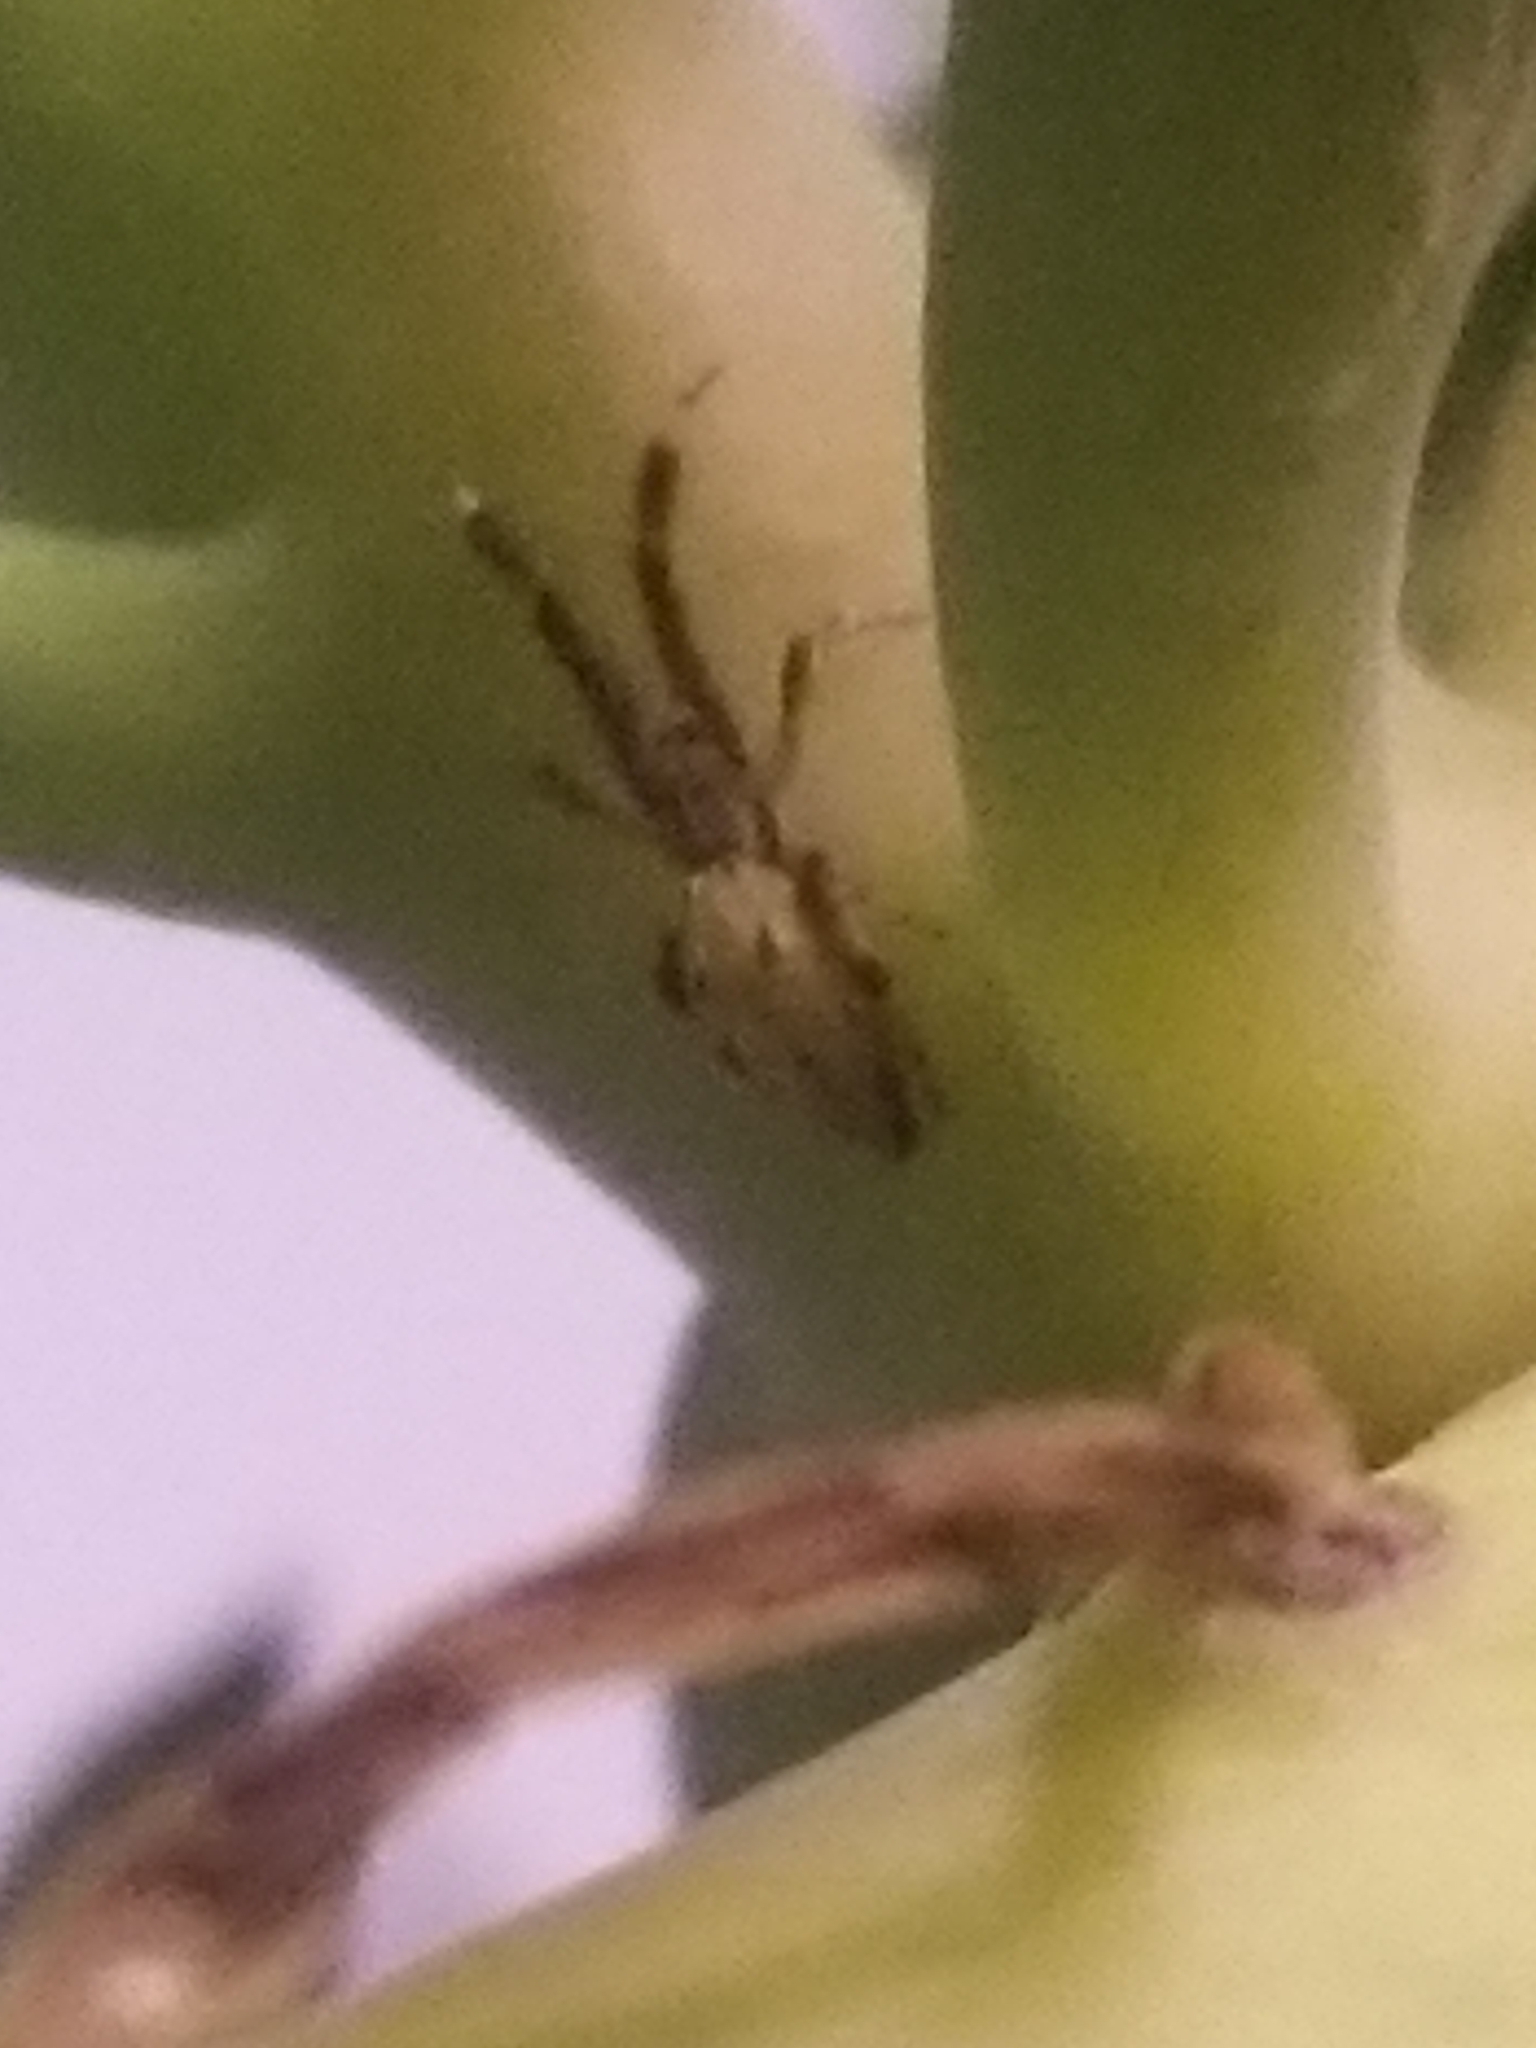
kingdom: Animalia
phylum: Arthropoda
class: Arachnida
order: Araneae
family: Uloboridae
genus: Uloborus
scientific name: Uloborus glomosus
